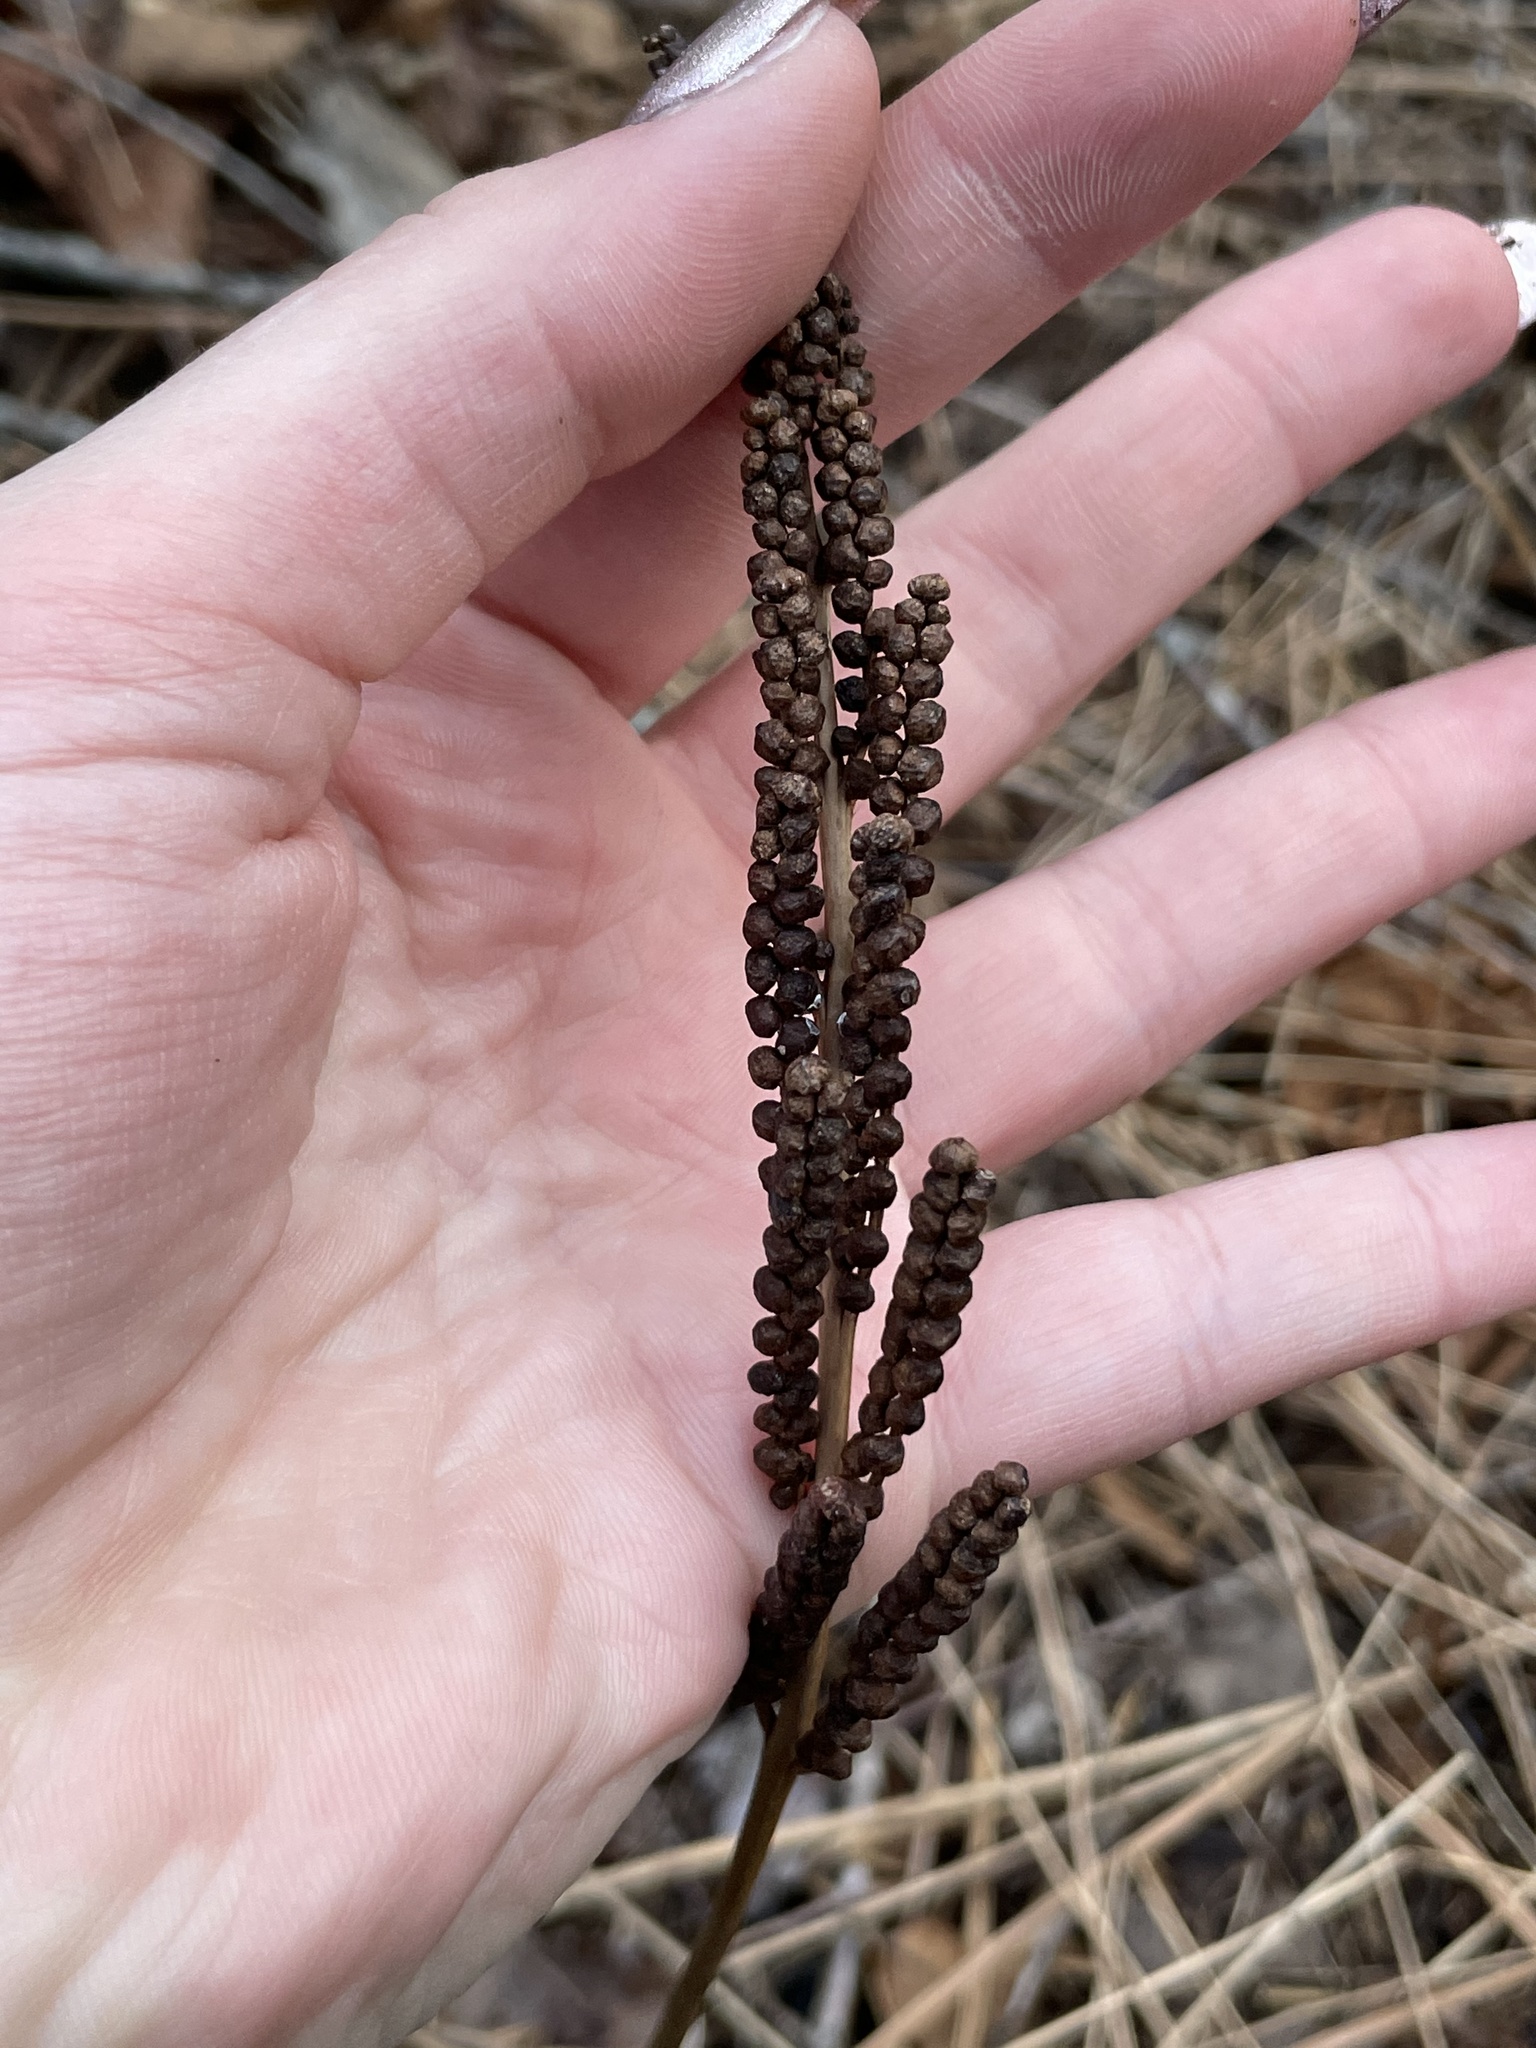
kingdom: Plantae
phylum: Tracheophyta
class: Polypodiopsida
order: Polypodiales
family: Onocleaceae
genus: Onoclea
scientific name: Onoclea sensibilis
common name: Sensitive fern
